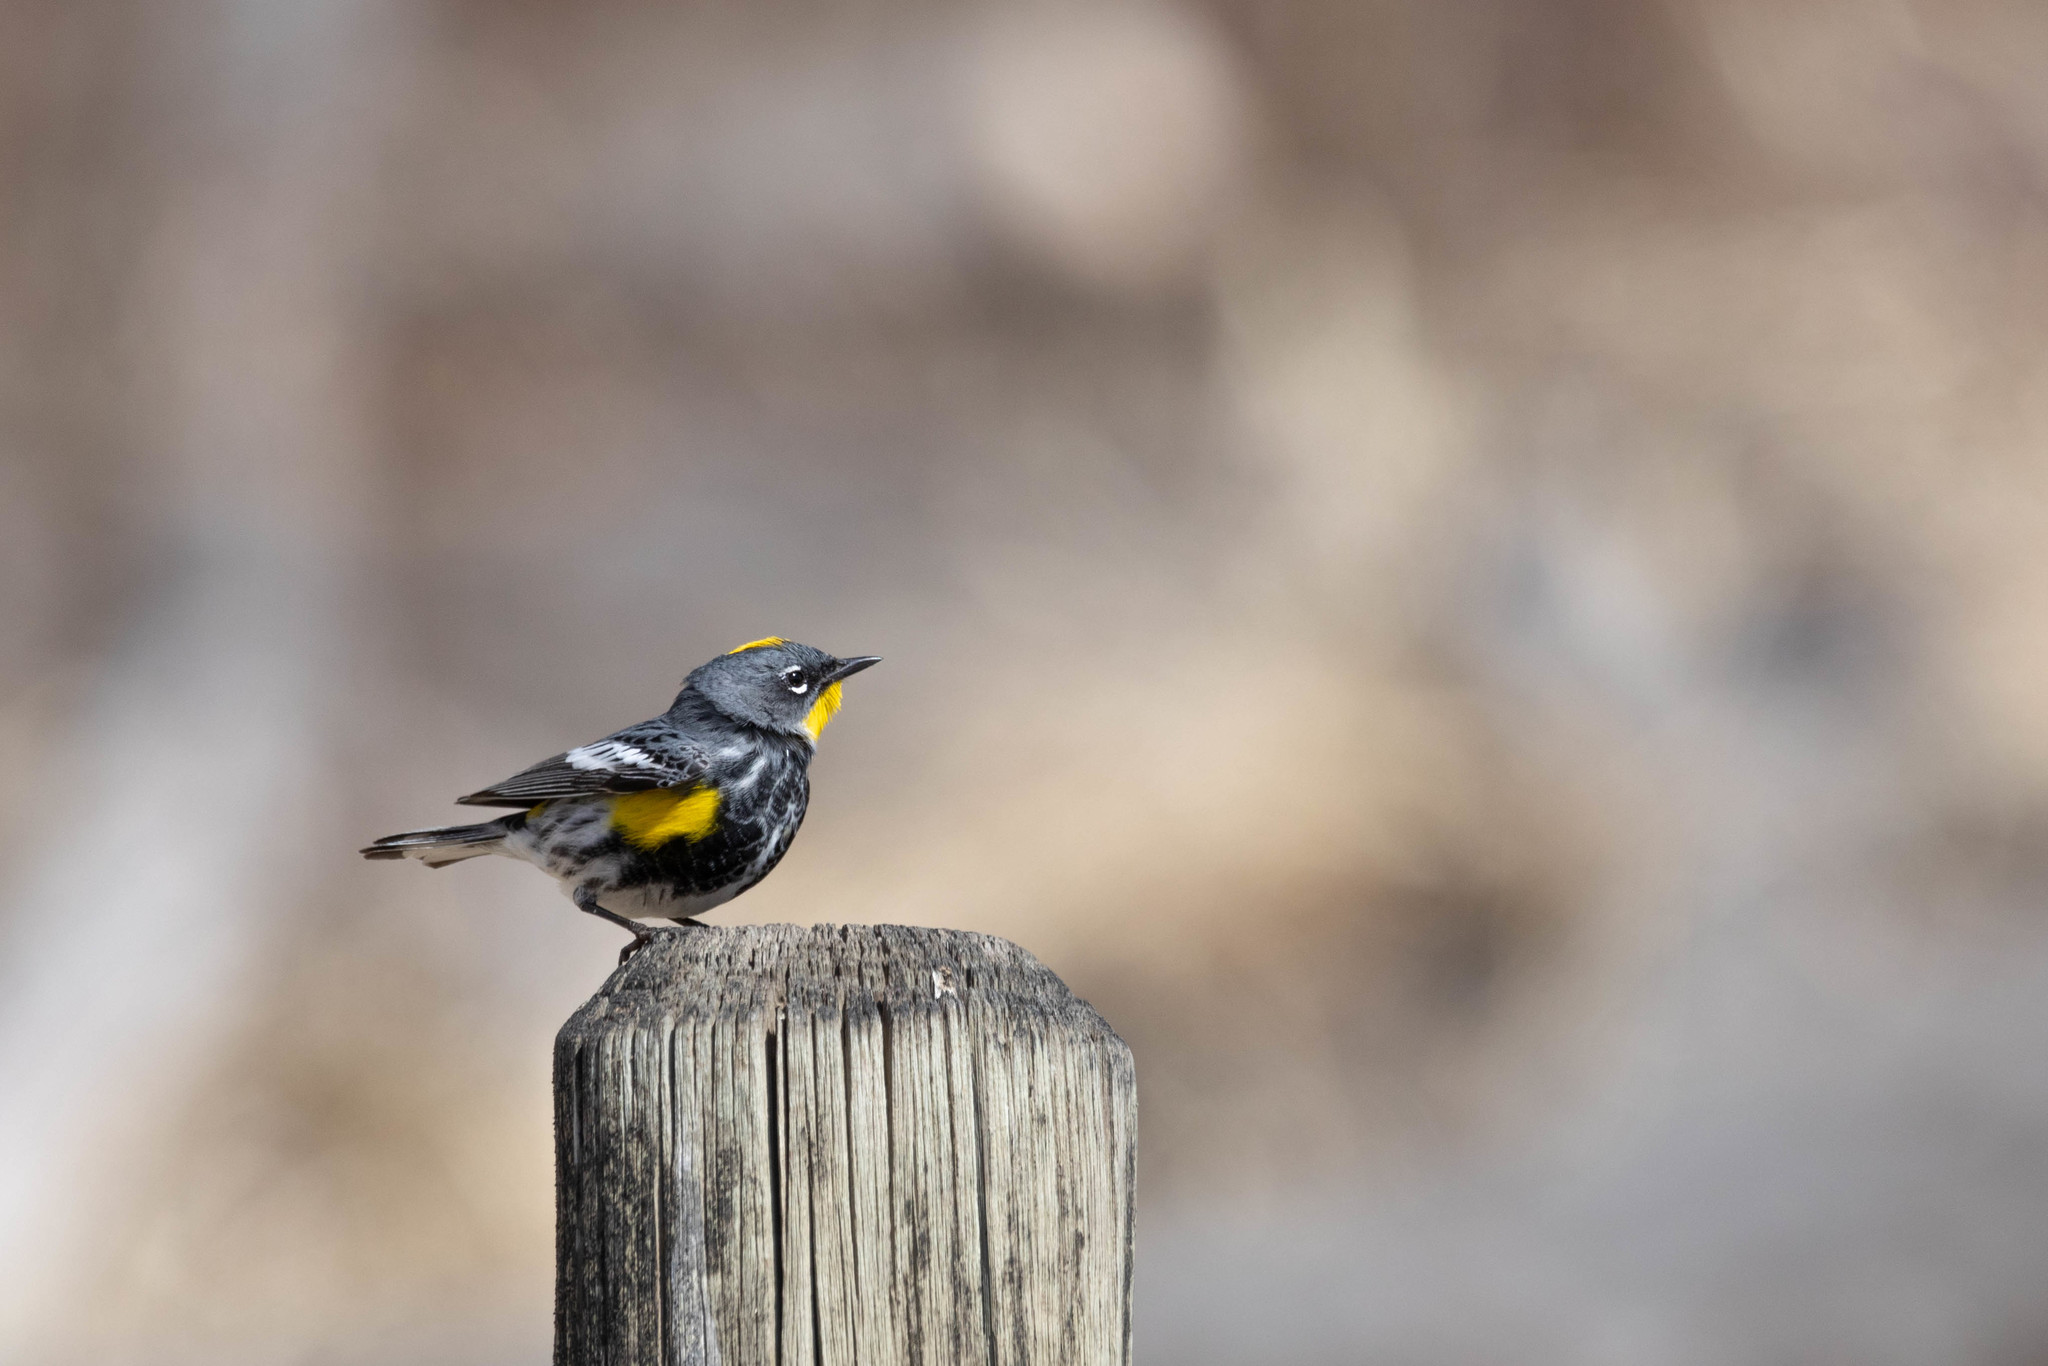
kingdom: Animalia
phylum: Chordata
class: Aves
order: Passeriformes
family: Parulidae
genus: Setophaga
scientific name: Setophaga auduboni
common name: Audubon's warbler
